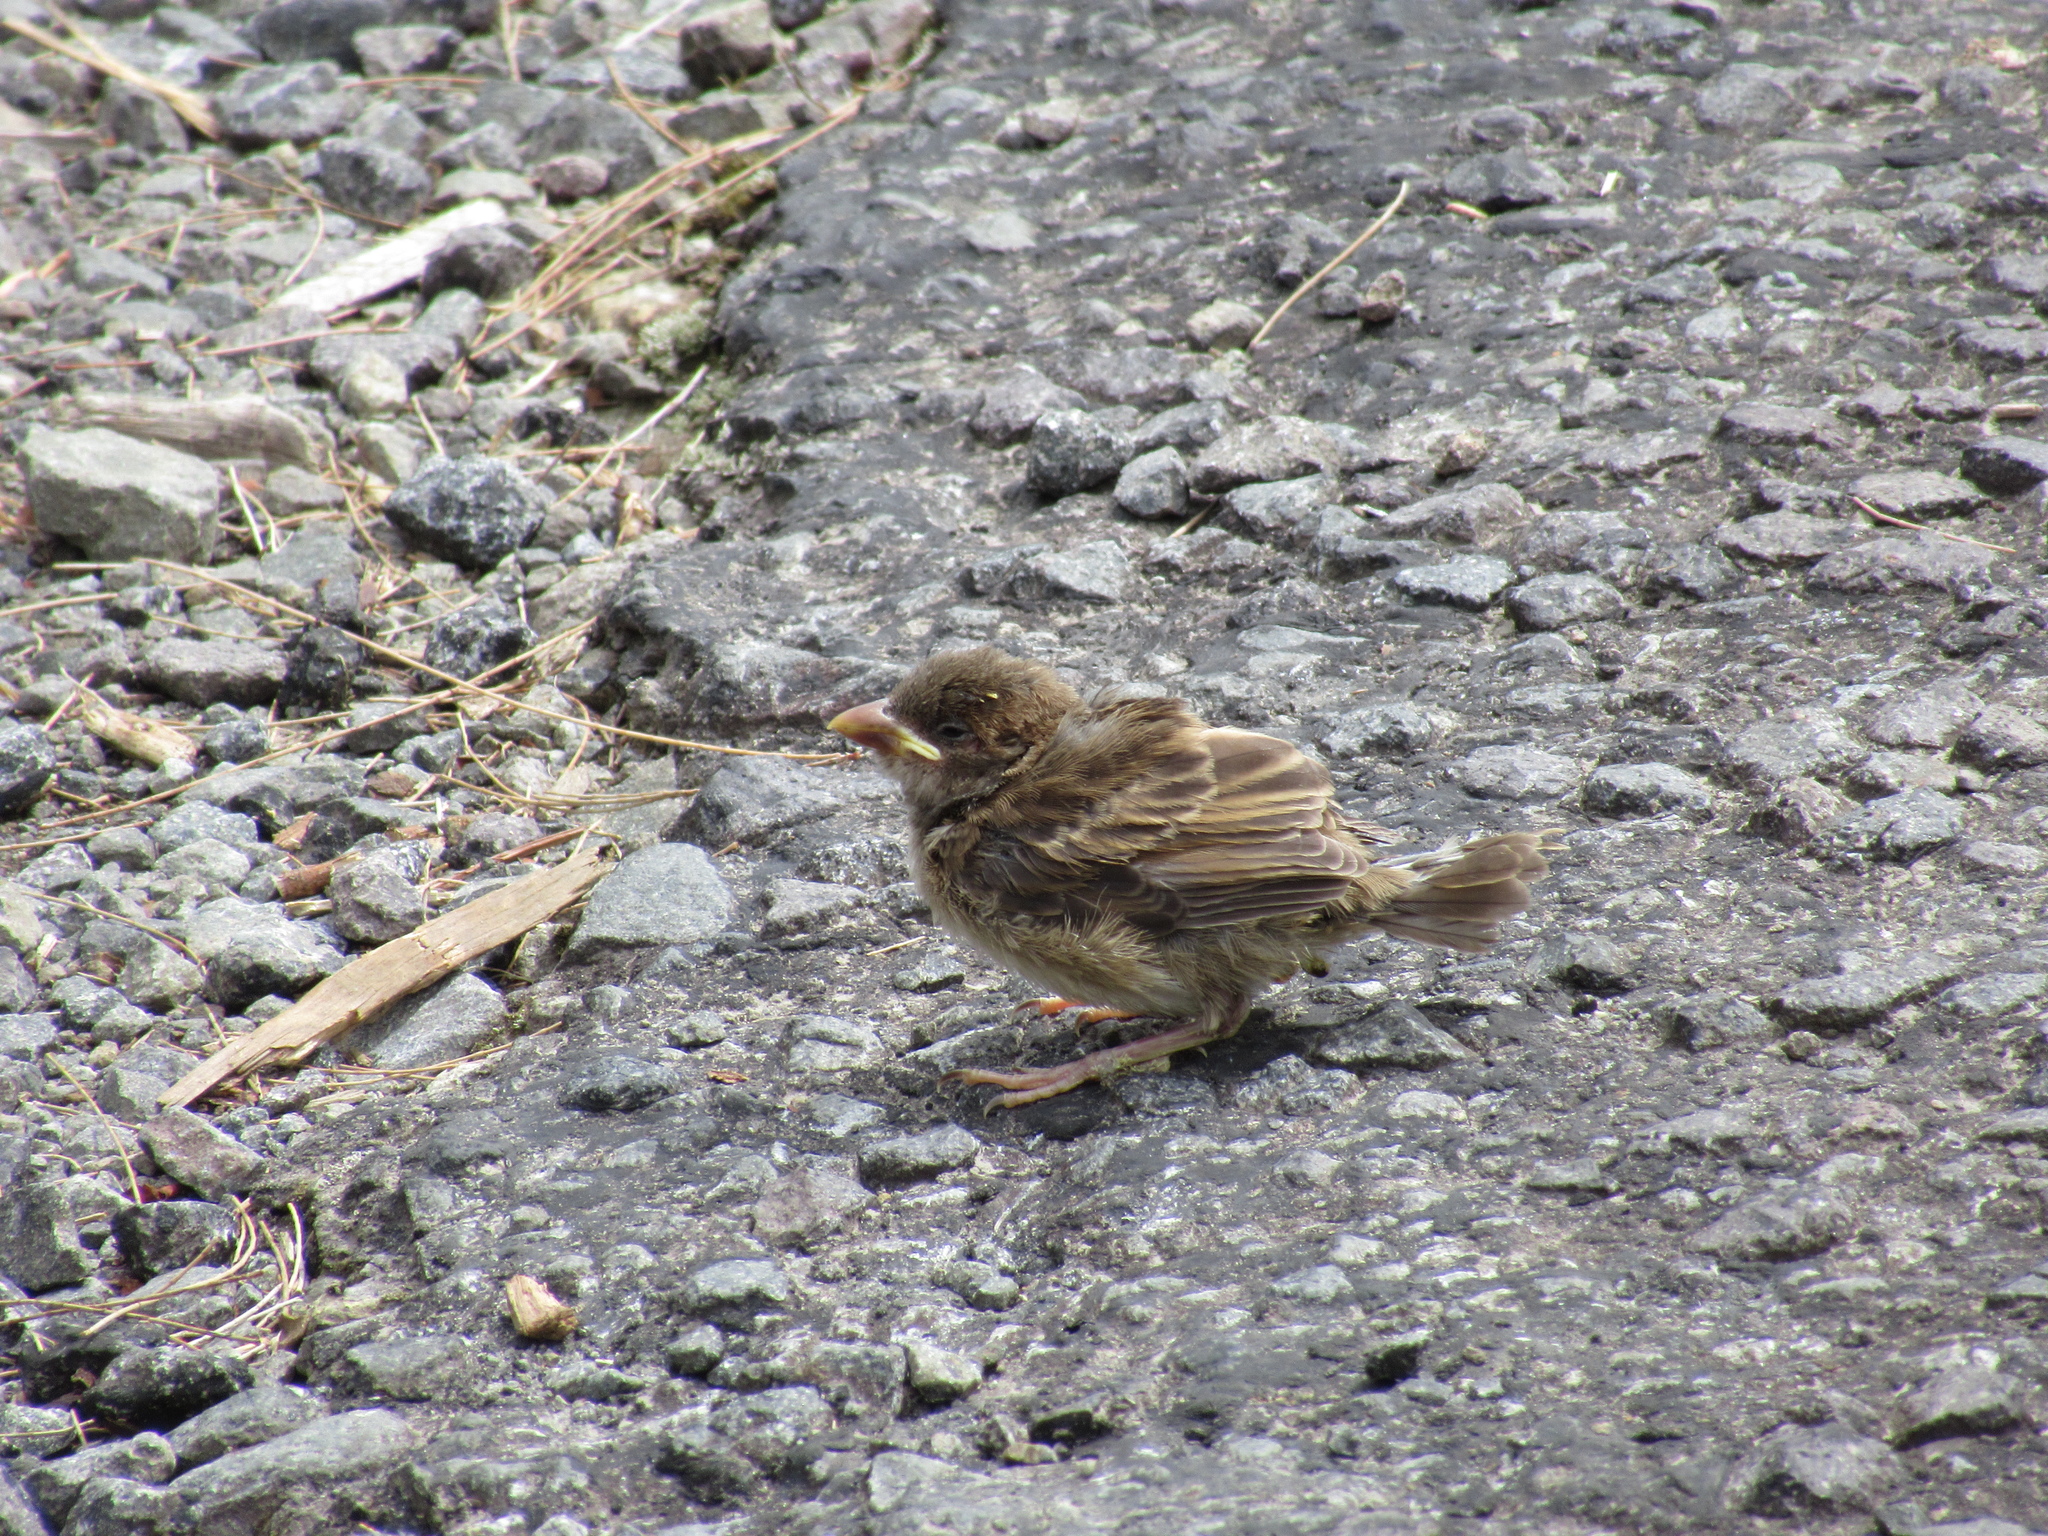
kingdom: Animalia
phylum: Chordata
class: Aves
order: Passeriformes
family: Passeridae
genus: Passer
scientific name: Passer domesticus
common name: House sparrow
